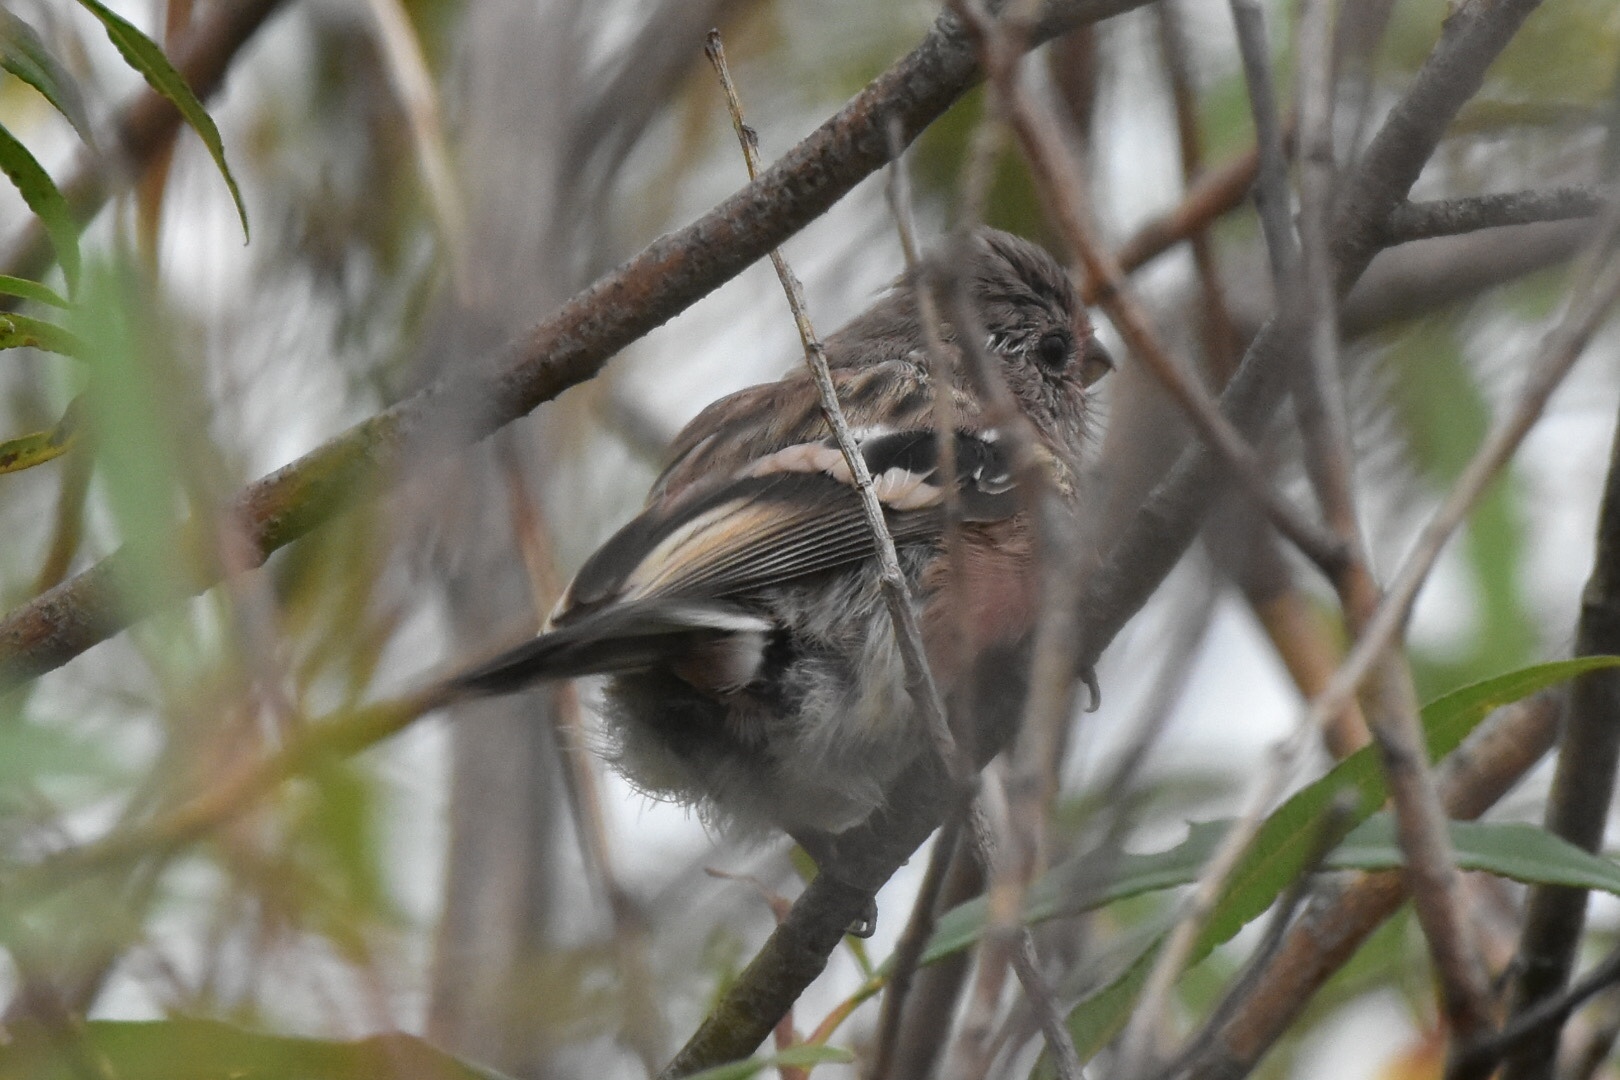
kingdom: Animalia
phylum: Chordata
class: Aves
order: Passeriformes
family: Fringillidae
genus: Carpodacus
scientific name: Carpodacus sibiricus
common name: Long-tailed rosefinch
